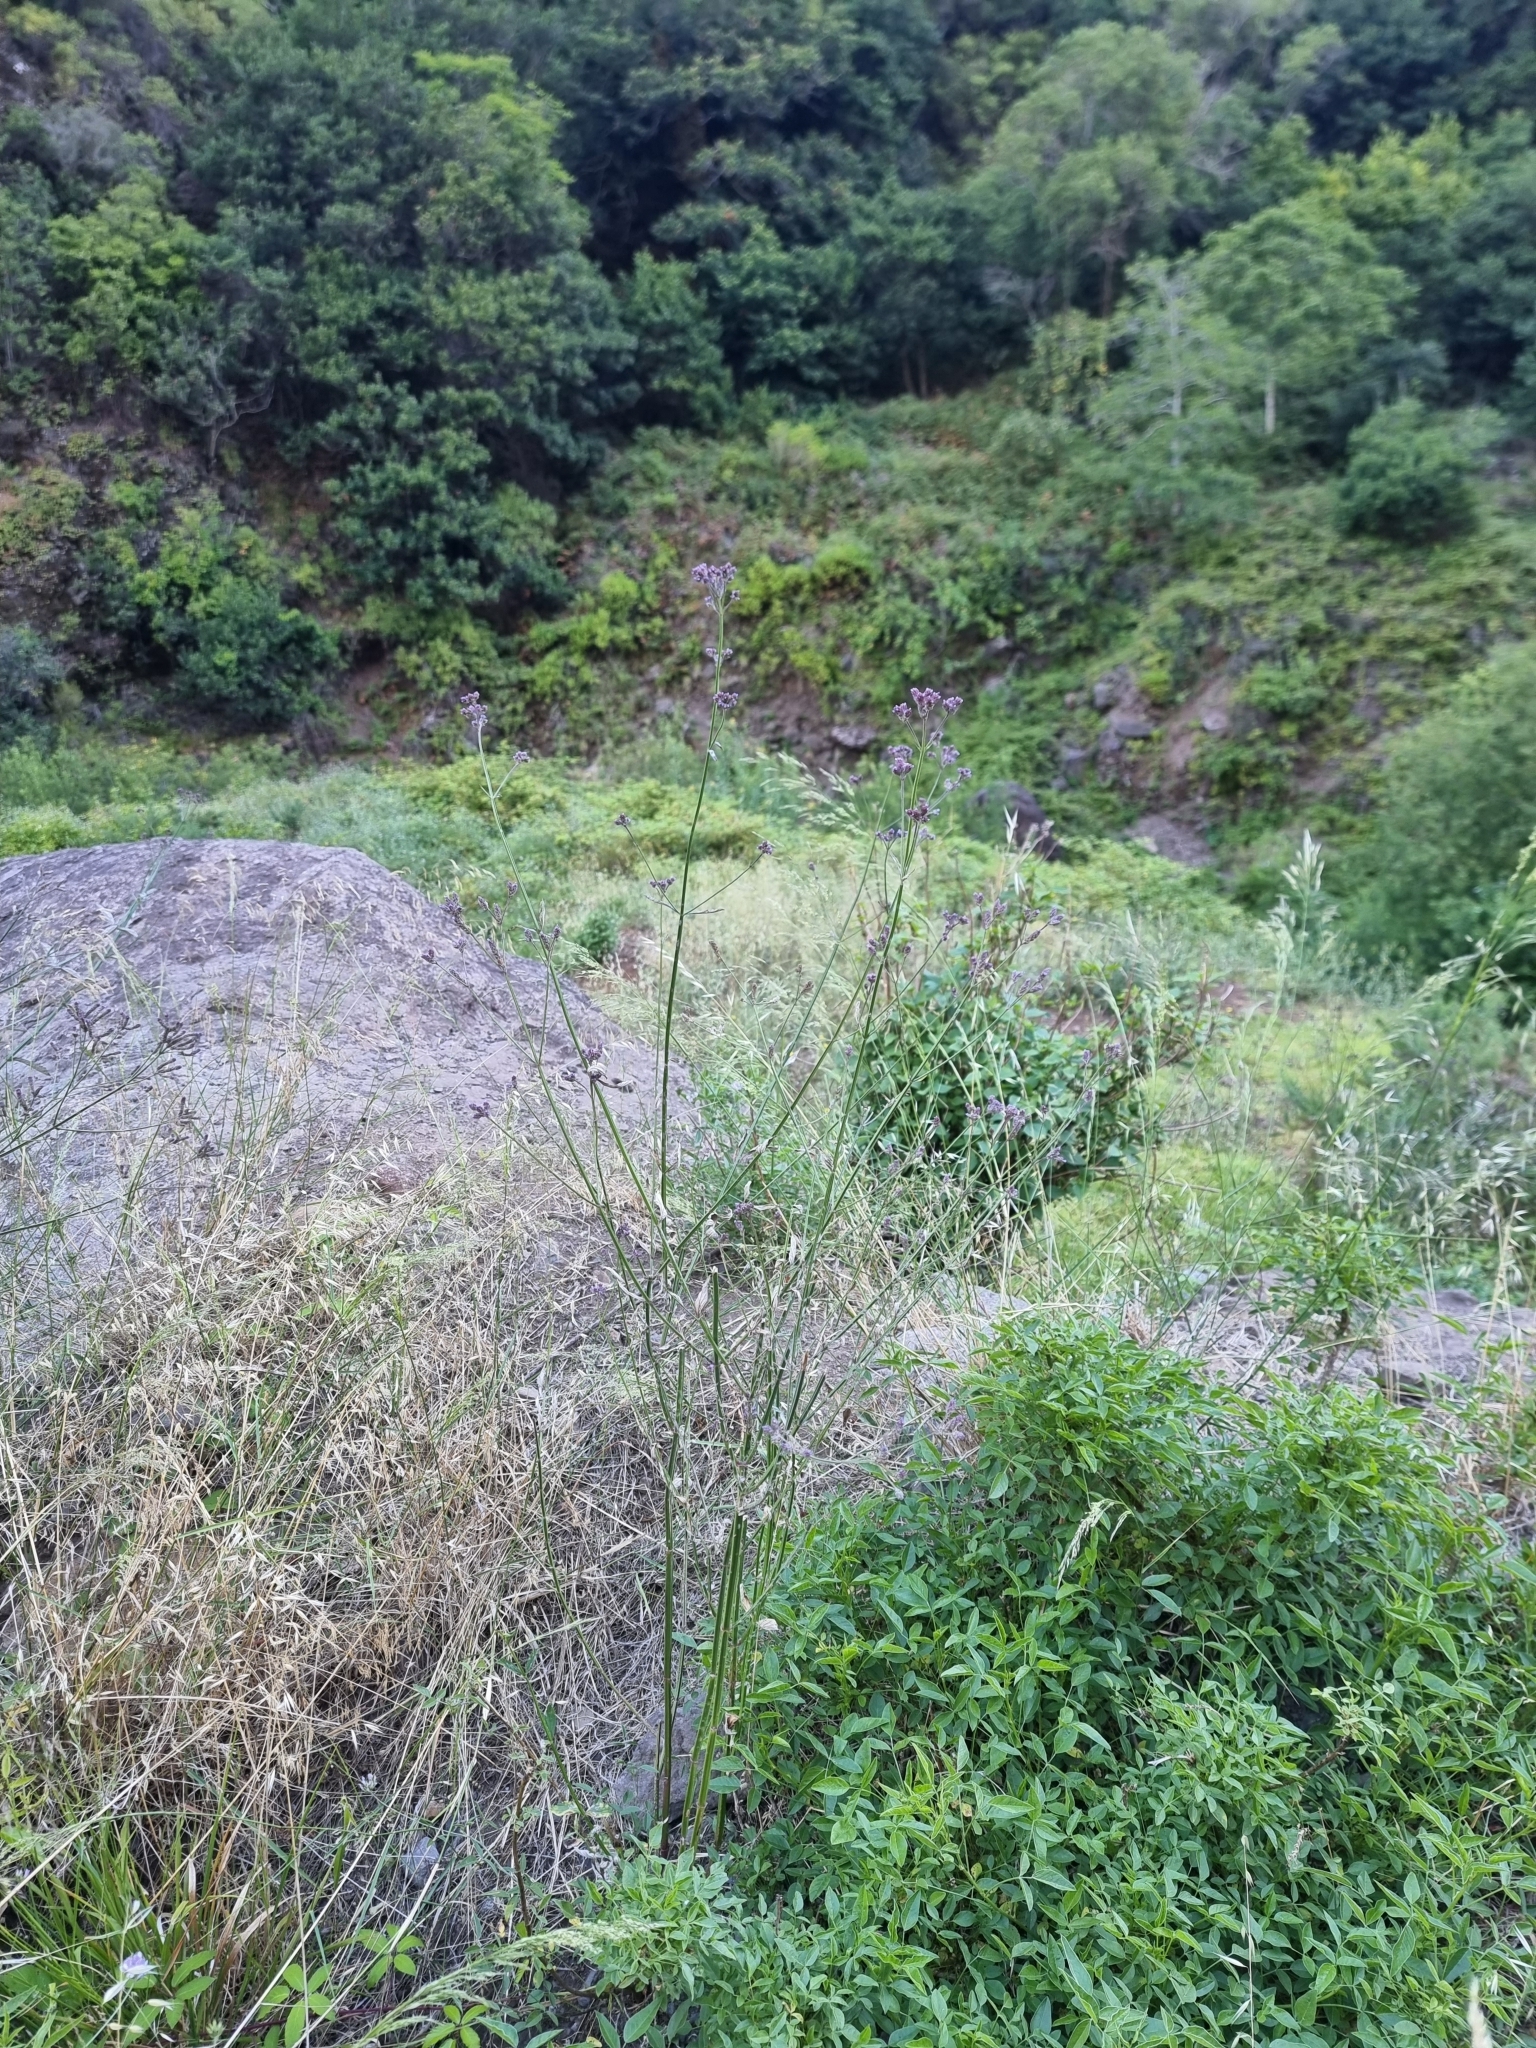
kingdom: Plantae
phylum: Tracheophyta
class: Magnoliopsida
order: Lamiales
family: Verbenaceae
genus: Verbena
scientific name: Verbena incompta
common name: Purpletop vervain
